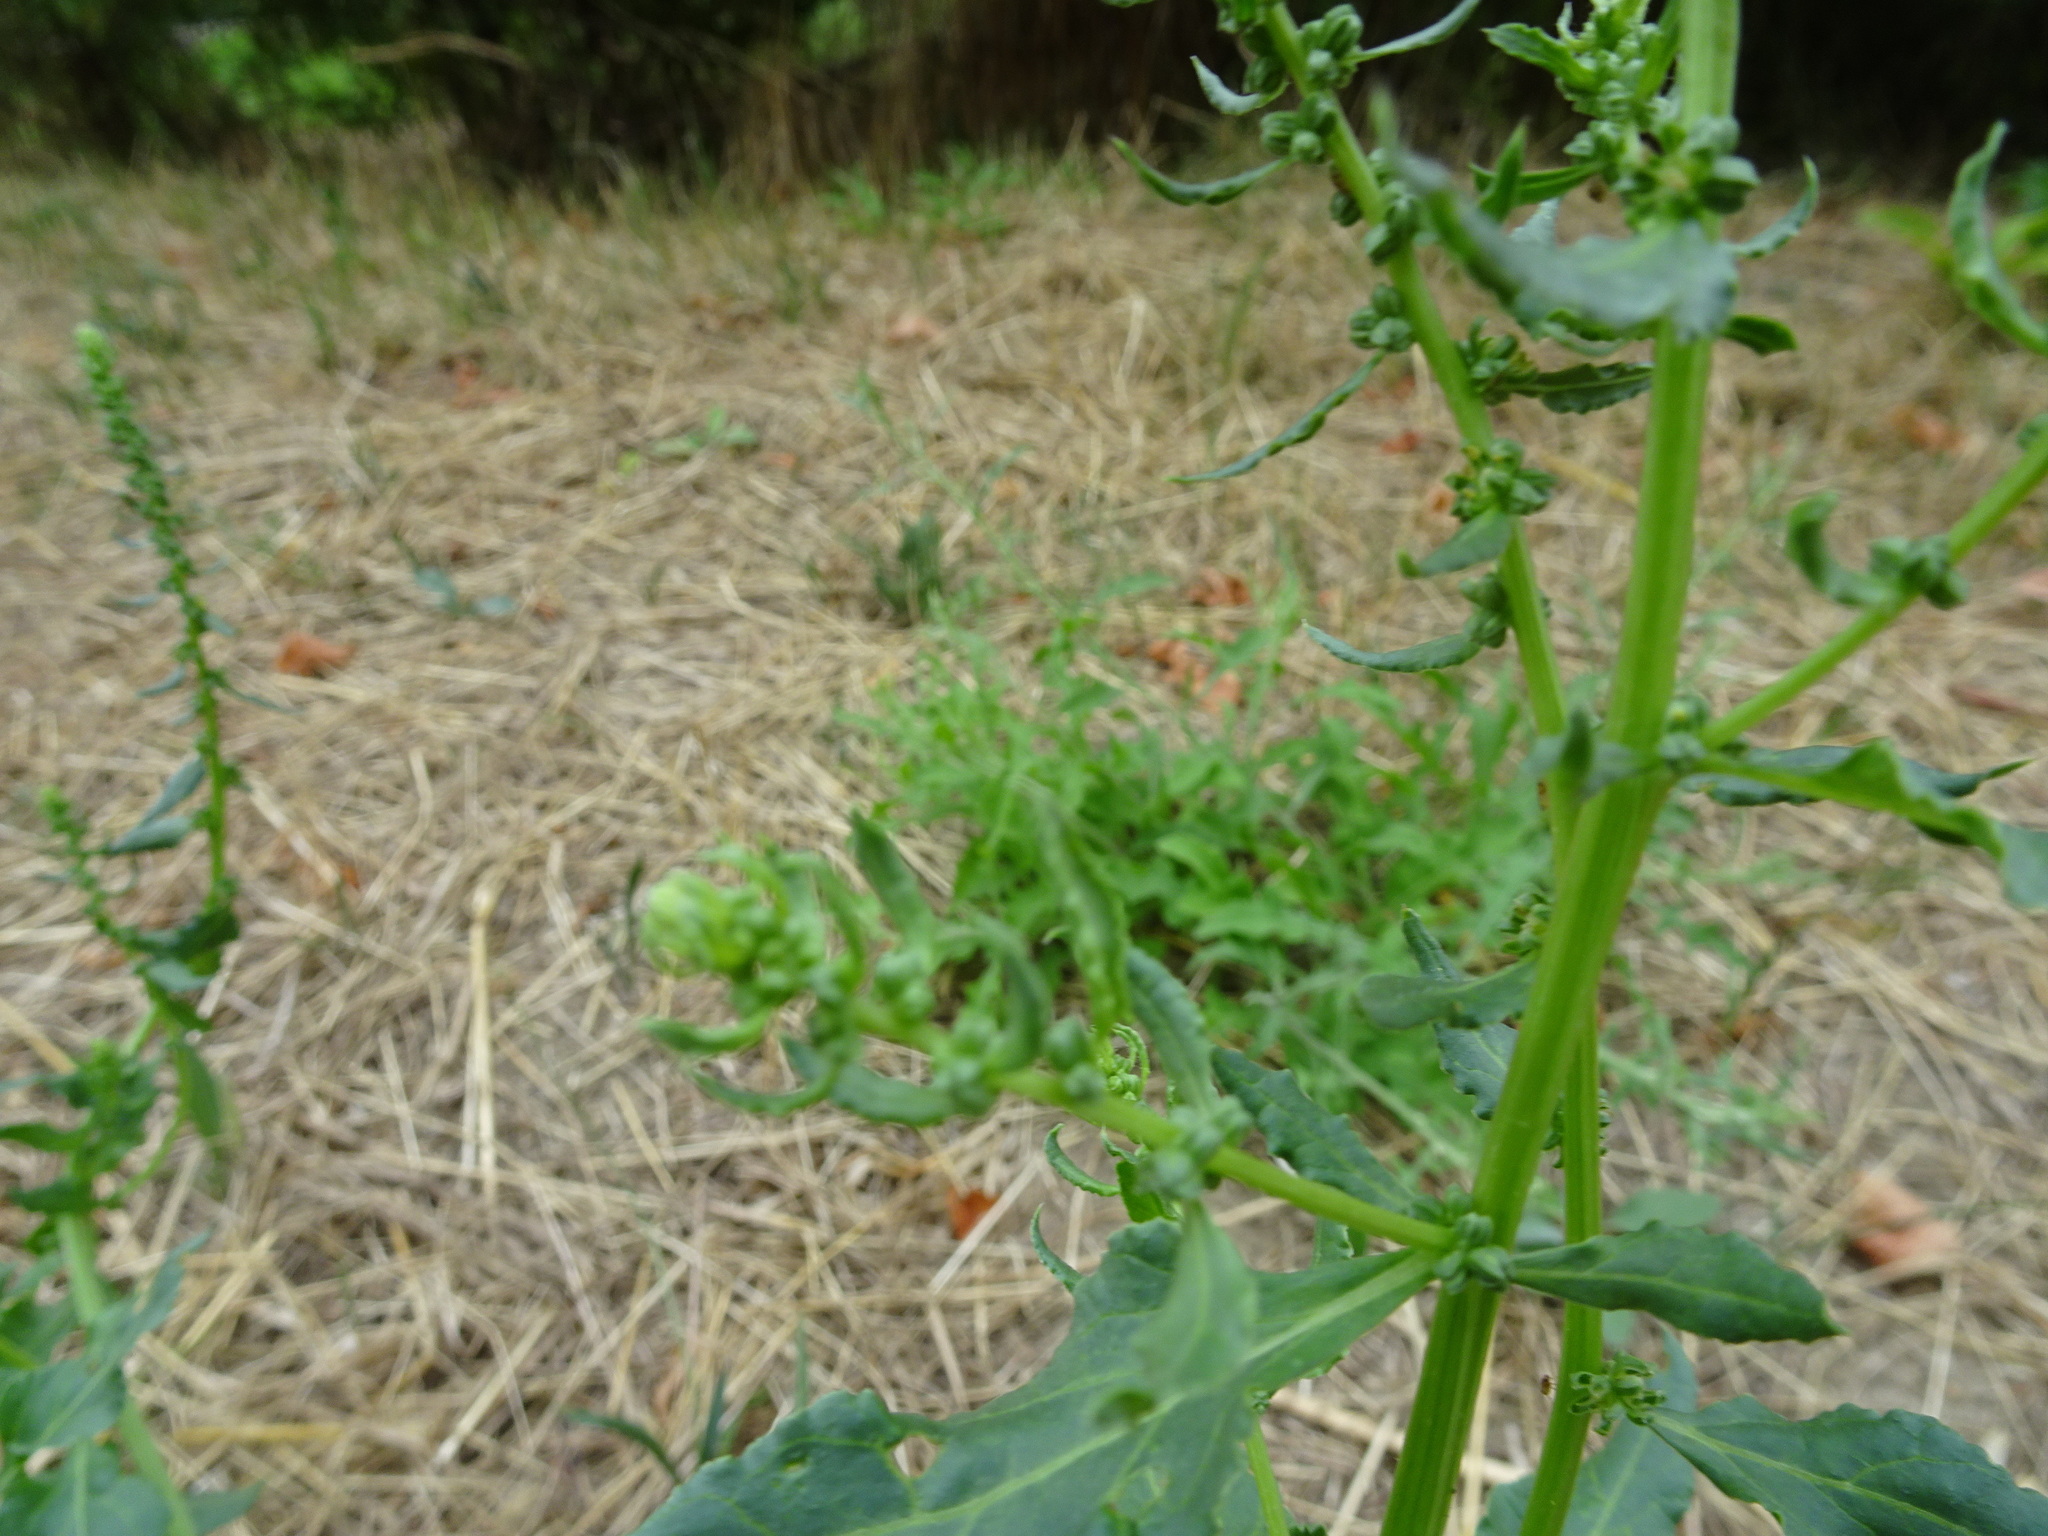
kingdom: Plantae
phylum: Tracheophyta
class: Magnoliopsida
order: Caryophyllales
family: Amaranthaceae
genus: Beta
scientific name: Beta vulgaris
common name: Beet
